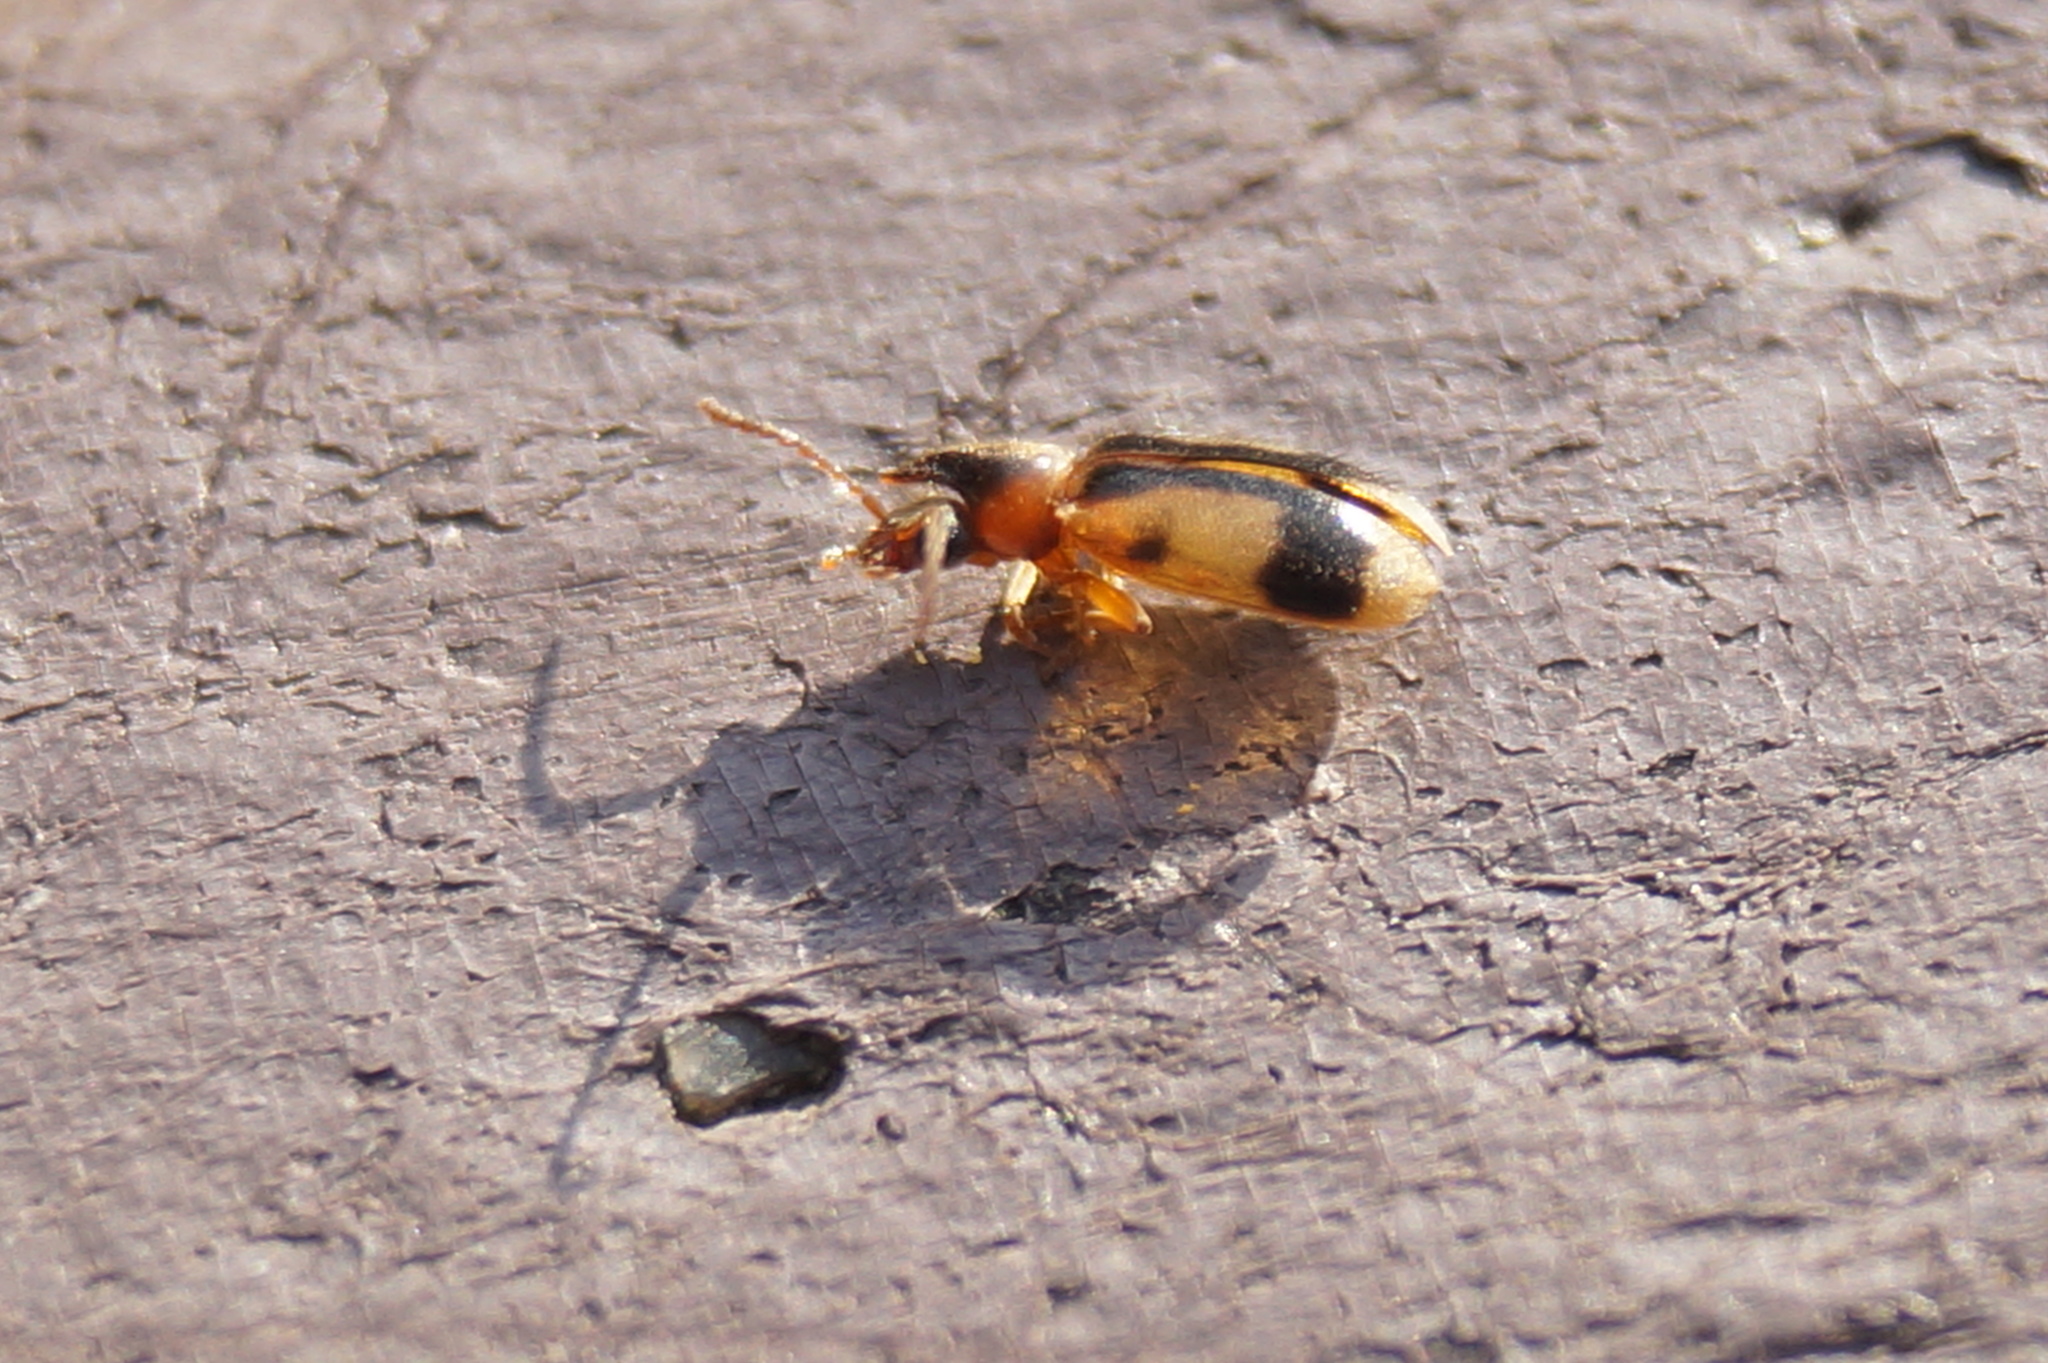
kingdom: Animalia
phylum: Arthropoda
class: Insecta
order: Coleoptera
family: Anthicidae
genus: Notoxus
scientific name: Notoxus monoceros
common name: Monoceros beetle
